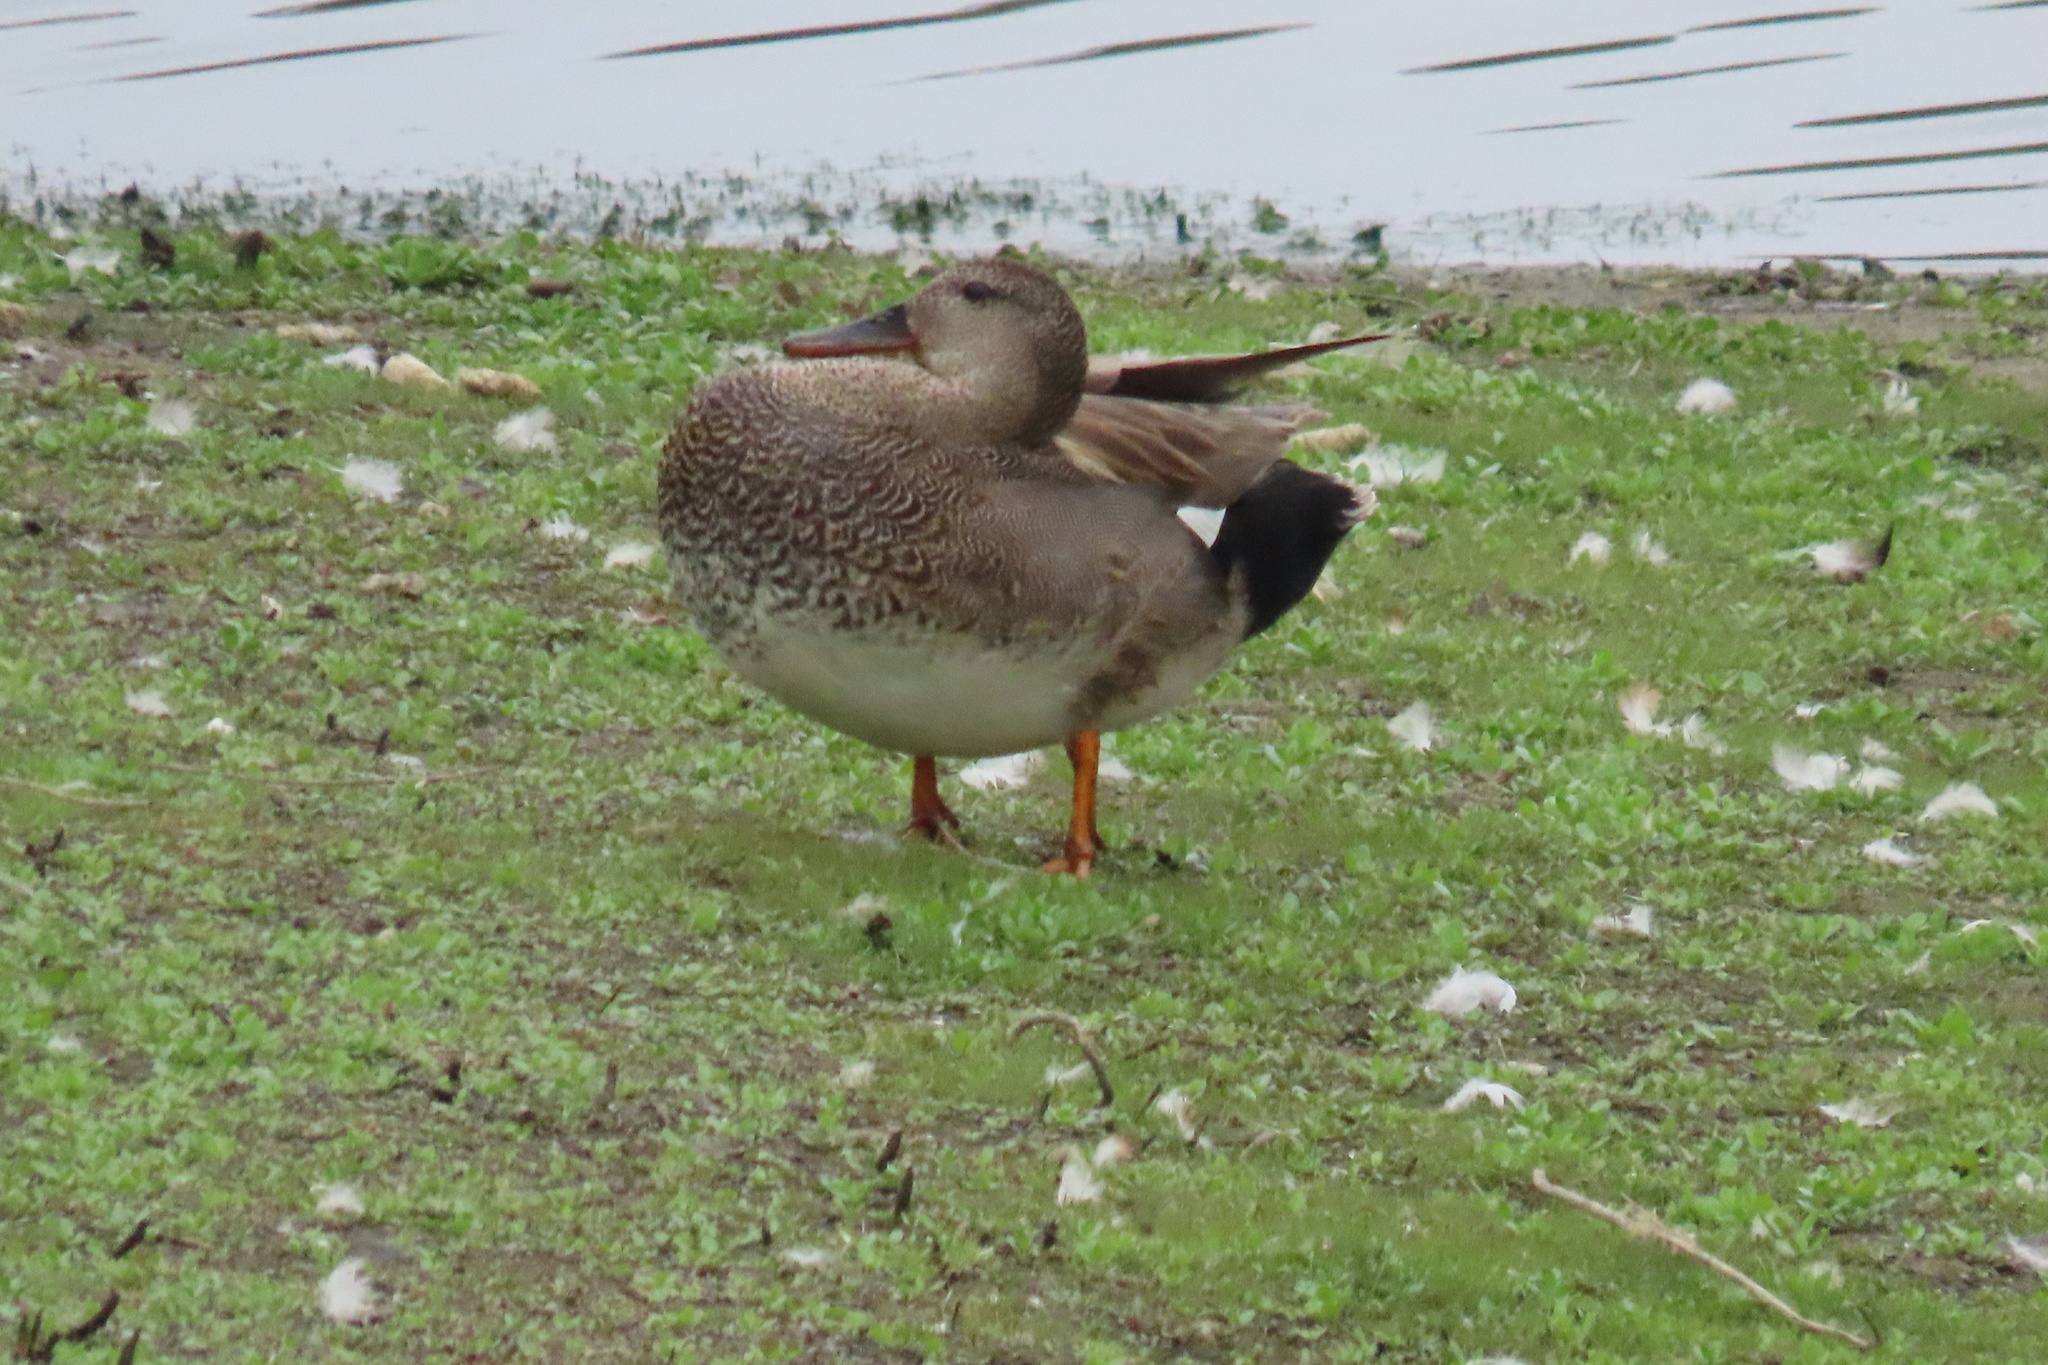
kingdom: Animalia
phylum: Chordata
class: Aves
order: Anseriformes
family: Anatidae
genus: Mareca
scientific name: Mareca strepera
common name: Gadwall
